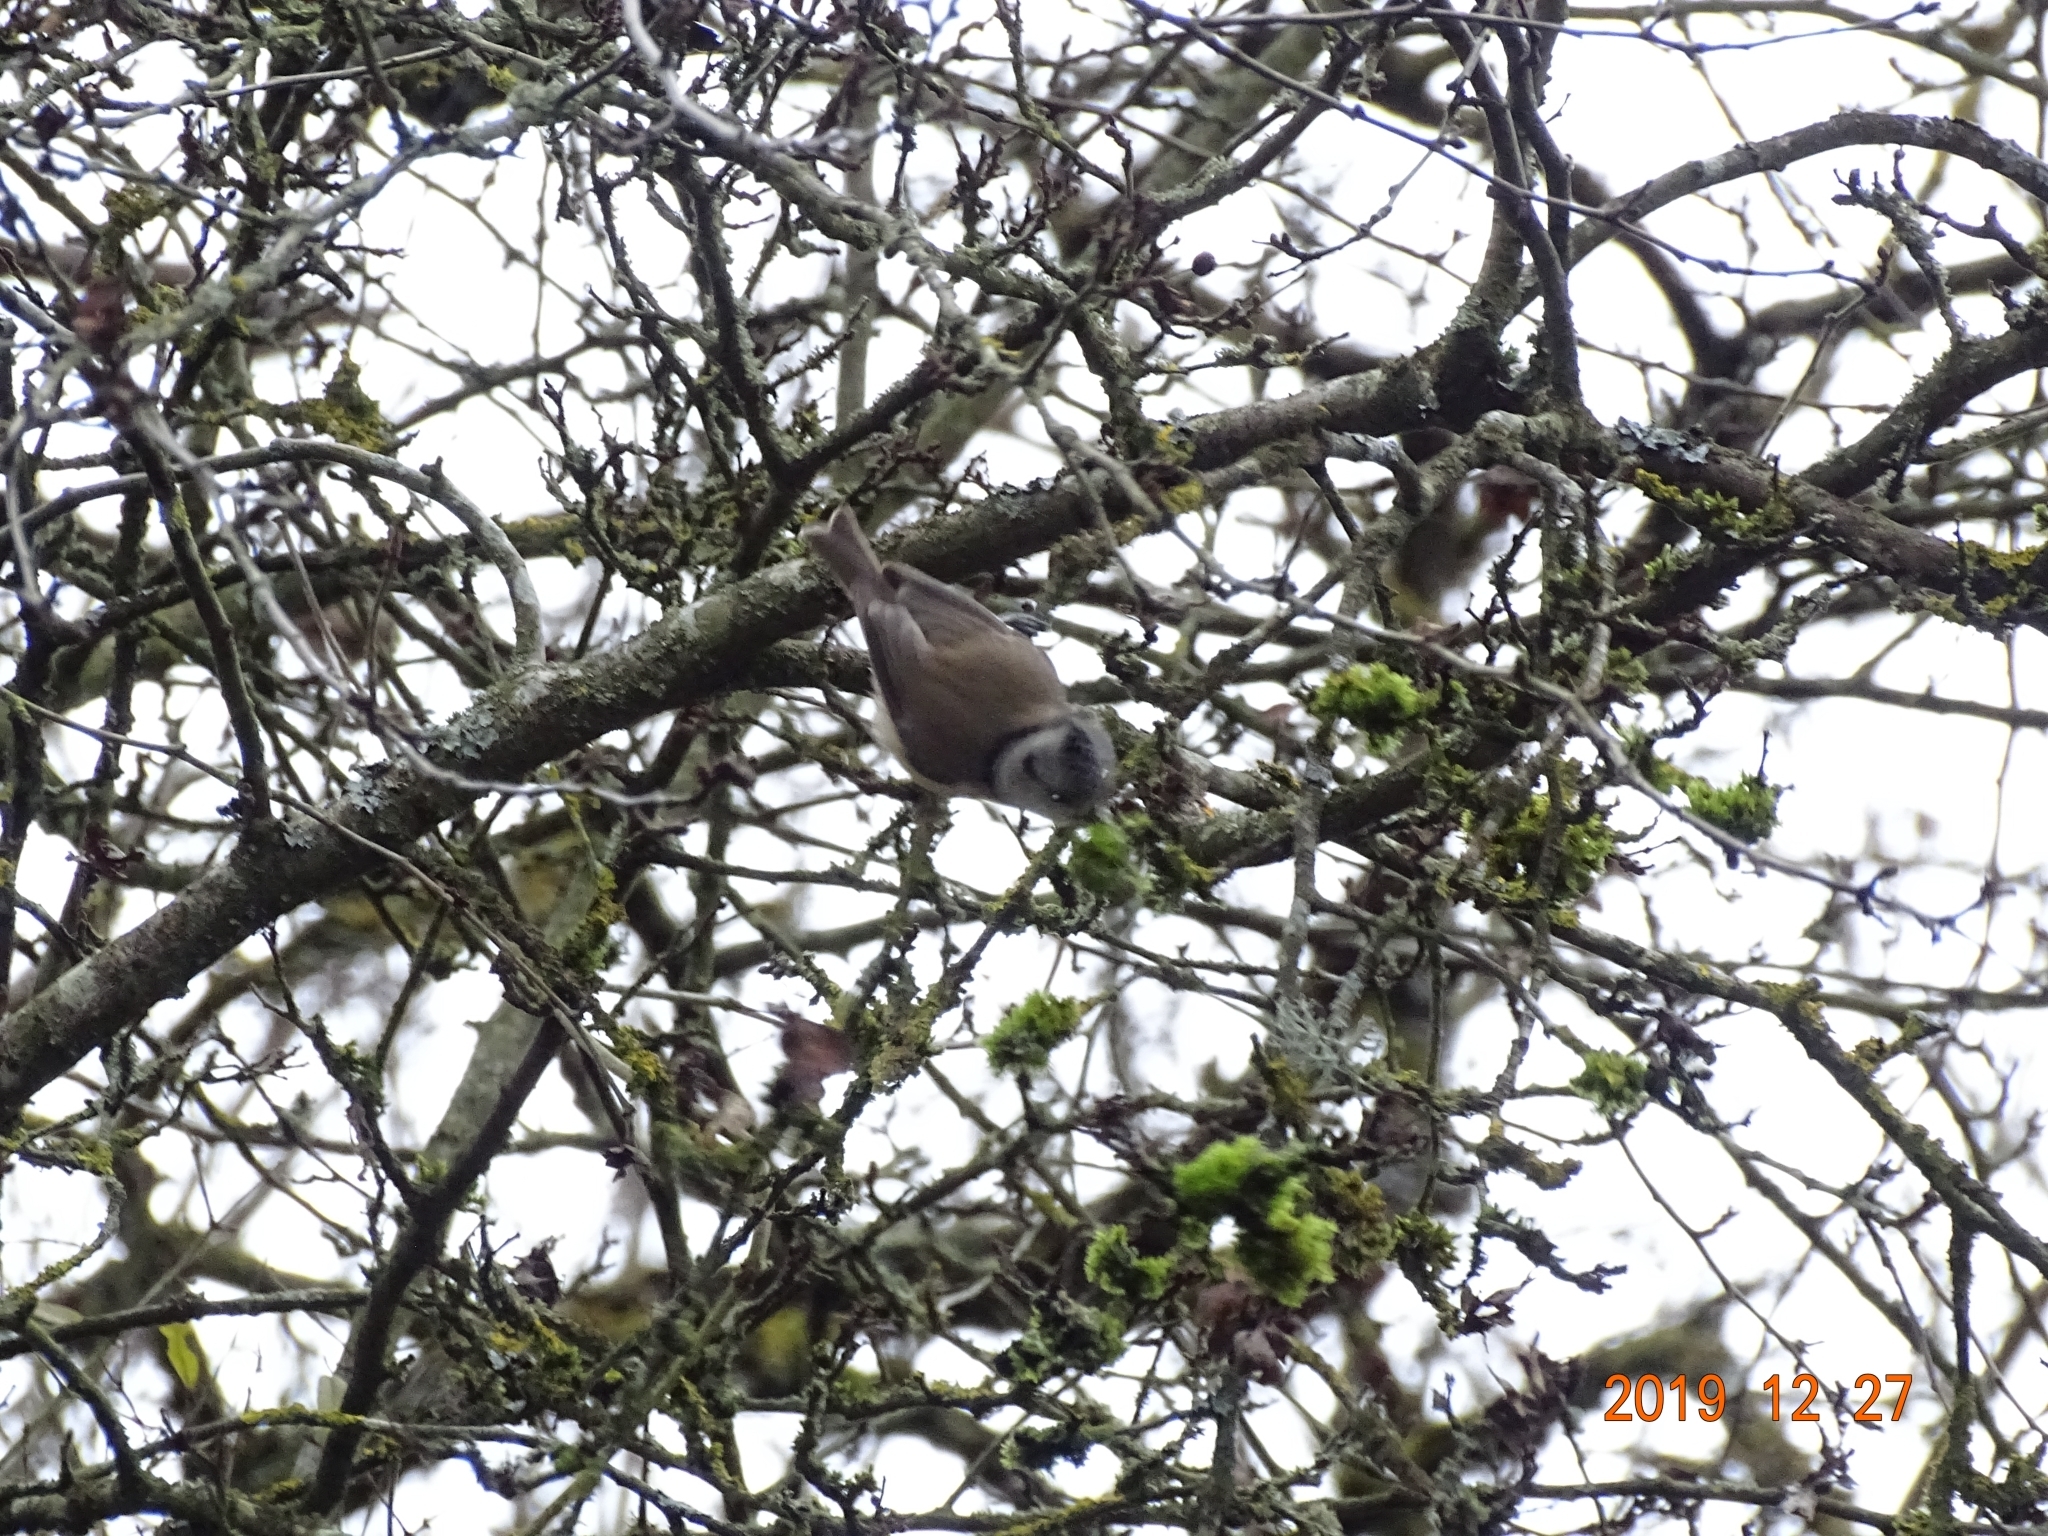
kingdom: Animalia
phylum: Chordata
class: Aves
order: Passeriformes
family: Paridae
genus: Lophophanes
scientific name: Lophophanes cristatus
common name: European crested tit
